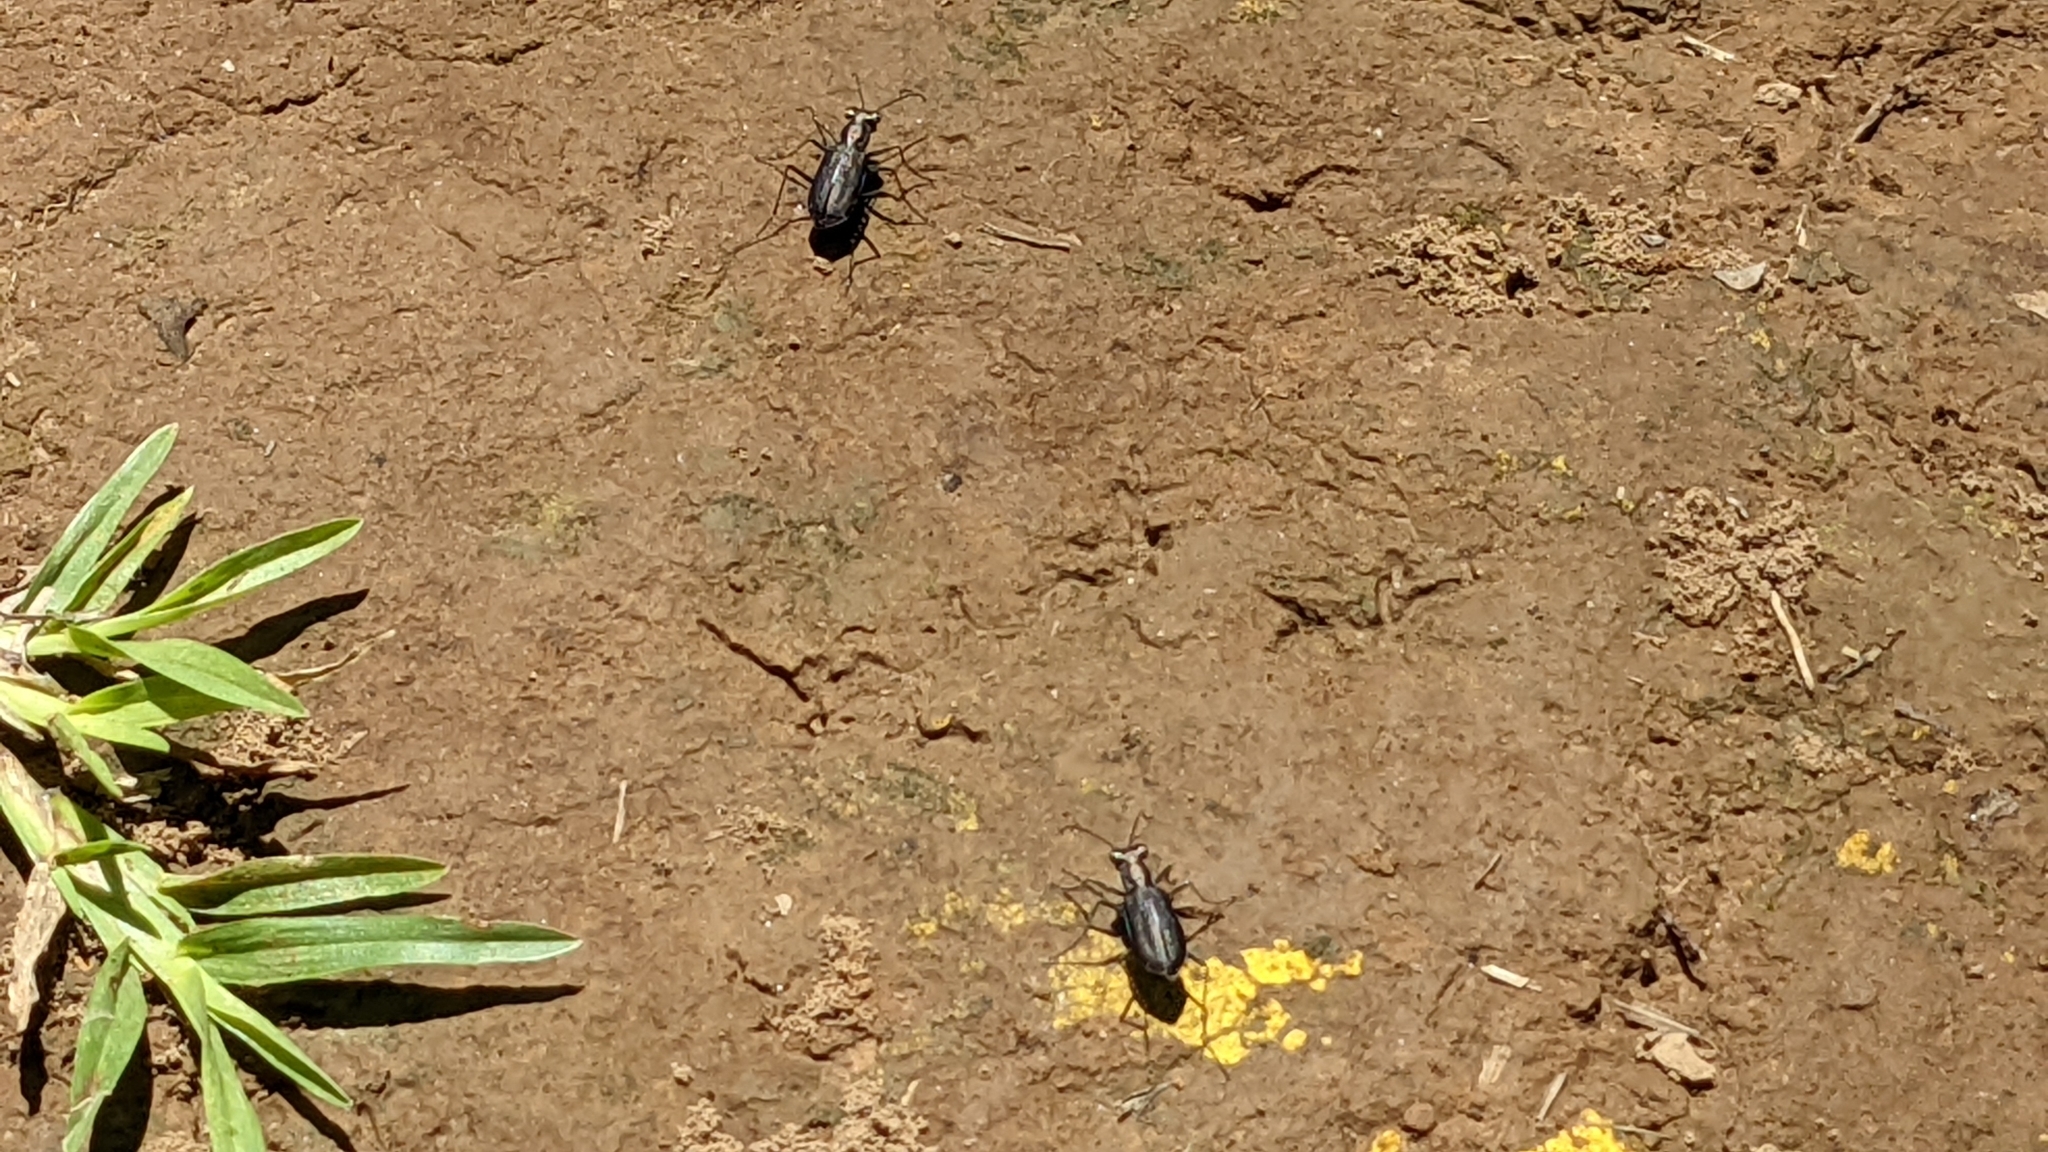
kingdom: Animalia
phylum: Arthropoda
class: Insecta
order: Coleoptera
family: Carabidae
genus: Cicindela
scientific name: Cicindela punctulata
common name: Punctured tiger beetle
